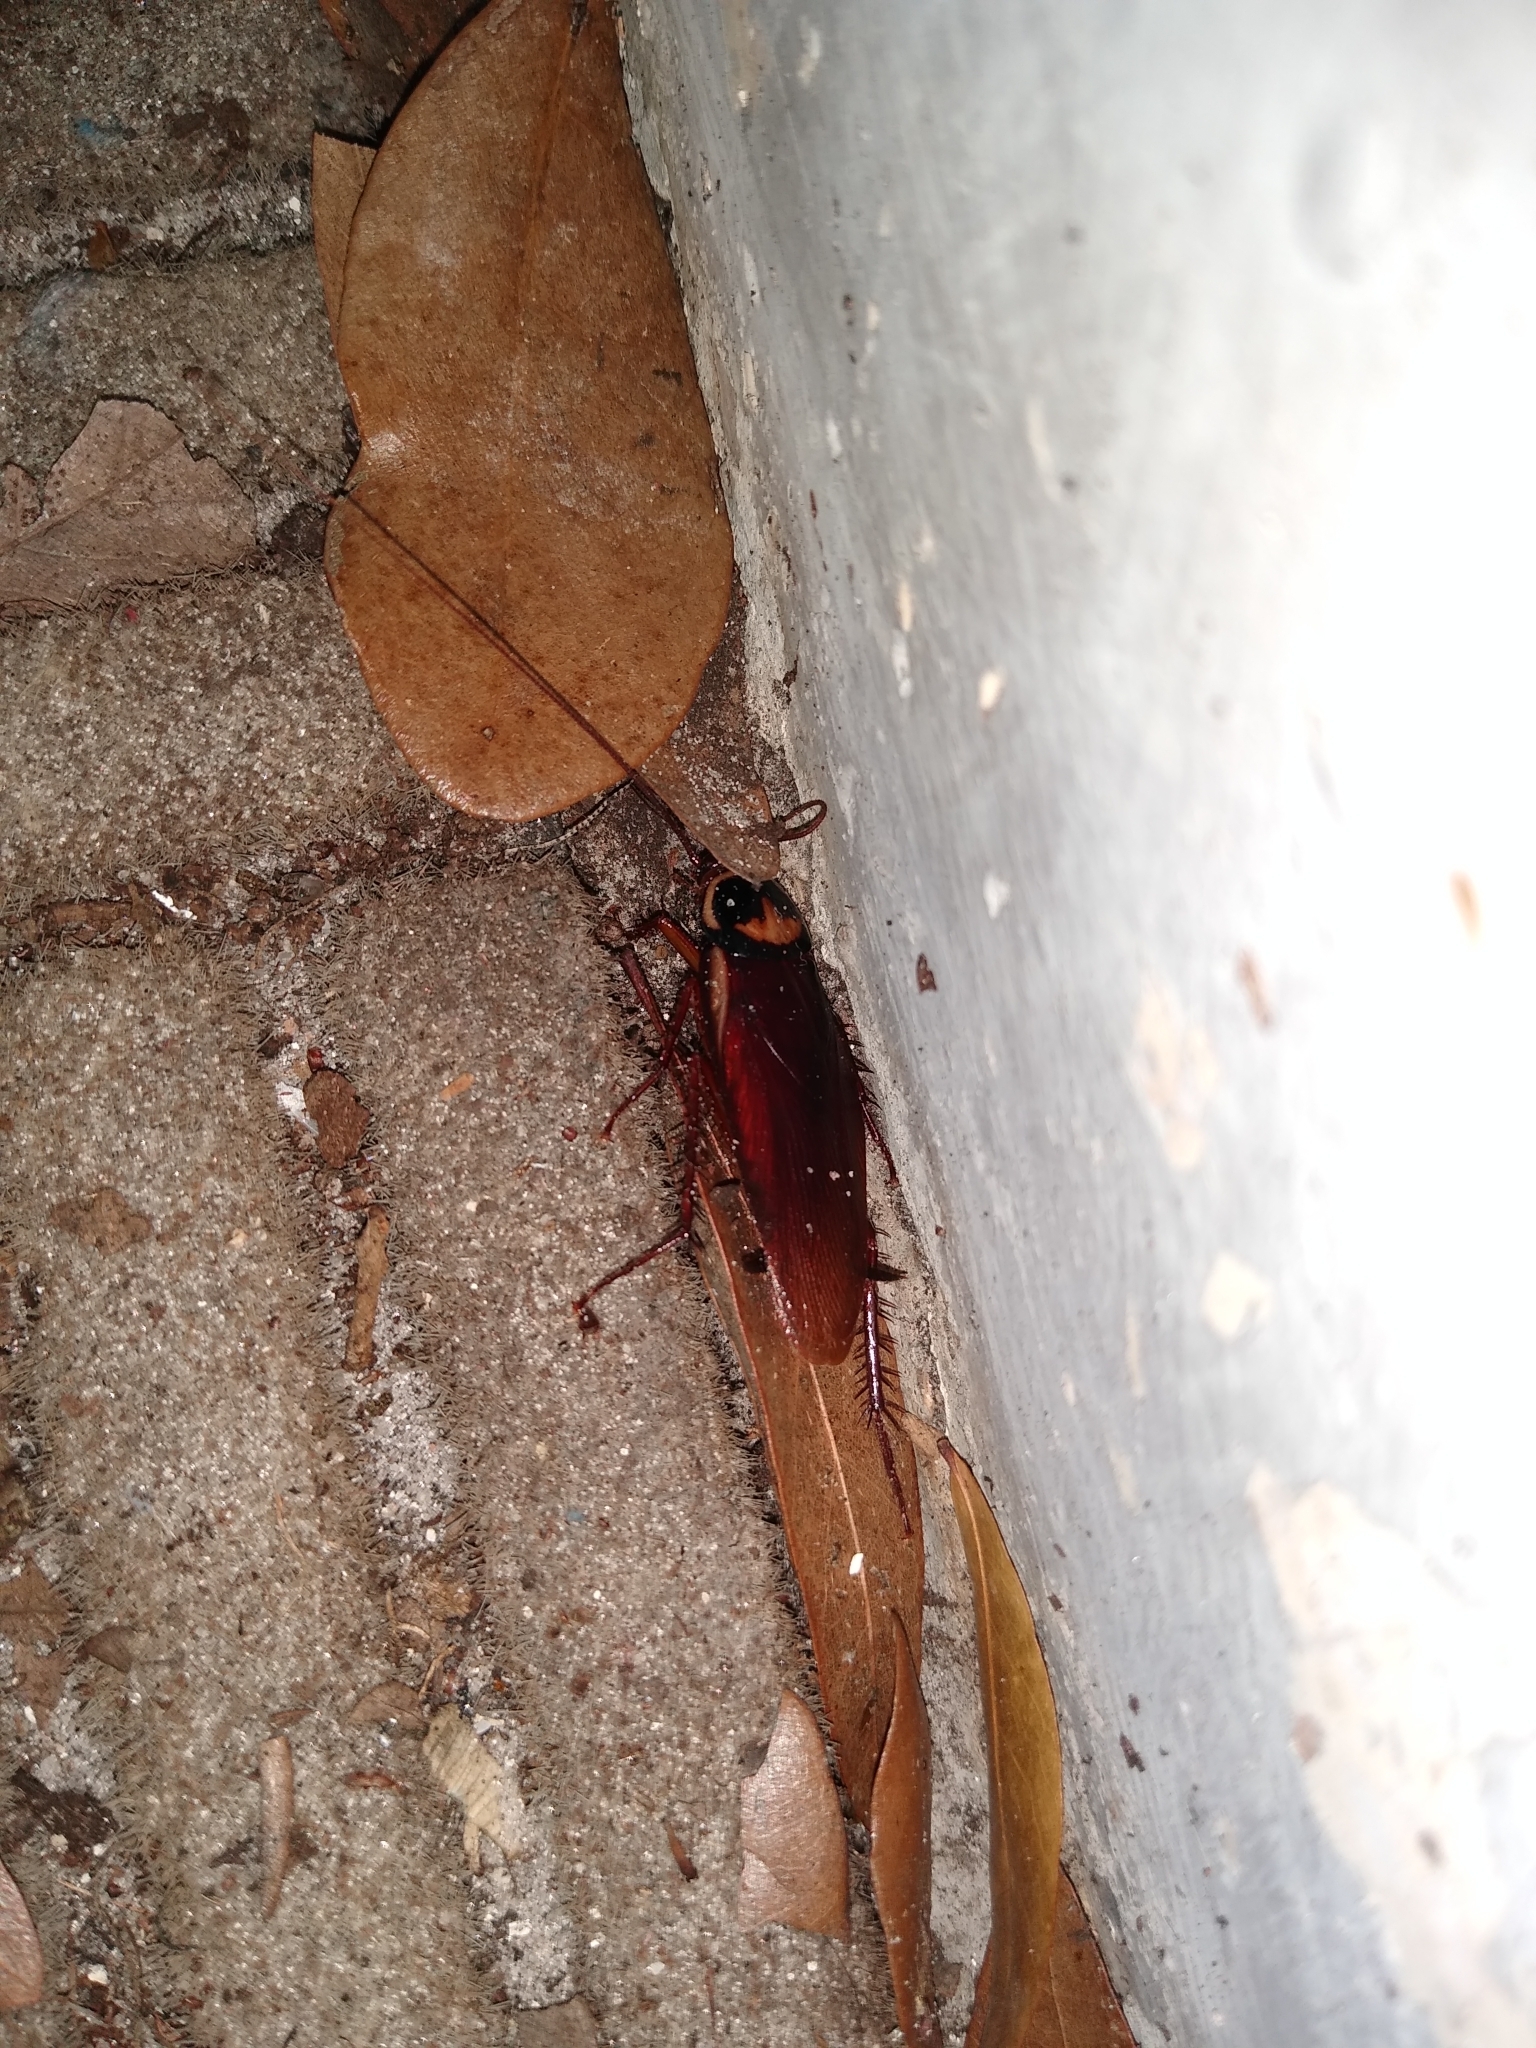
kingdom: Animalia
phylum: Arthropoda
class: Insecta
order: Blattodea
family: Blattidae
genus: Periplaneta
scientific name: Periplaneta americana
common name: American cockroach
